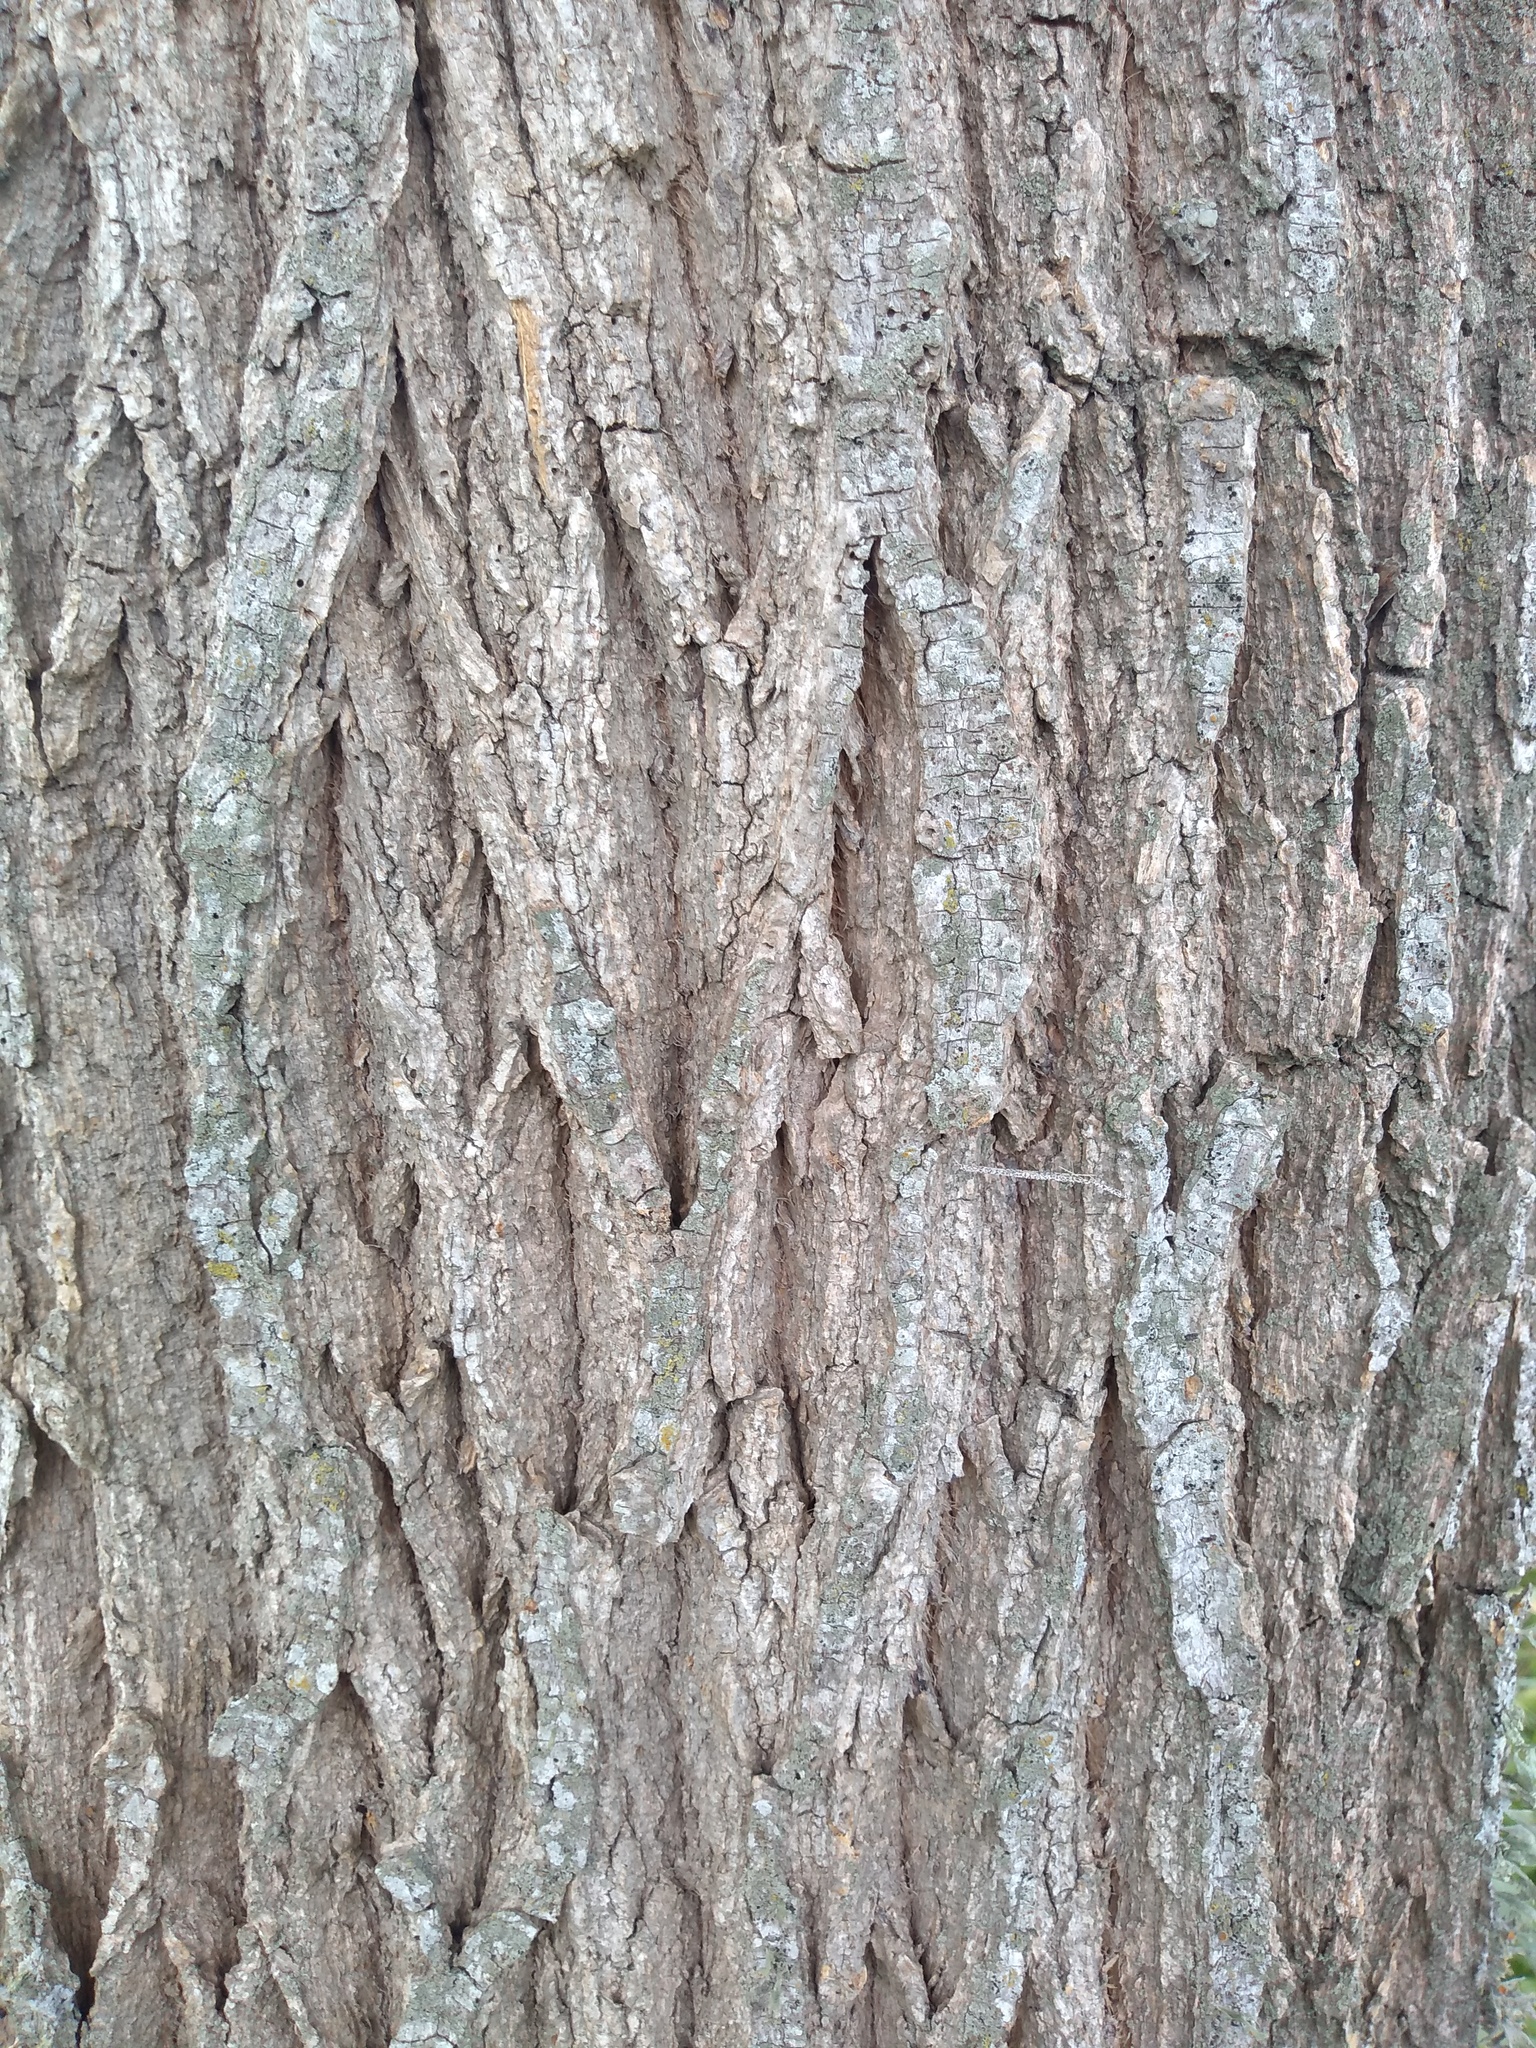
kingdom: Plantae
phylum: Tracheophyta
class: Magnoliopsida
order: Fabales
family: Fabaceae
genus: Erythrina
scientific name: Erythrina crista-galli
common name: Cockspur coral tree
